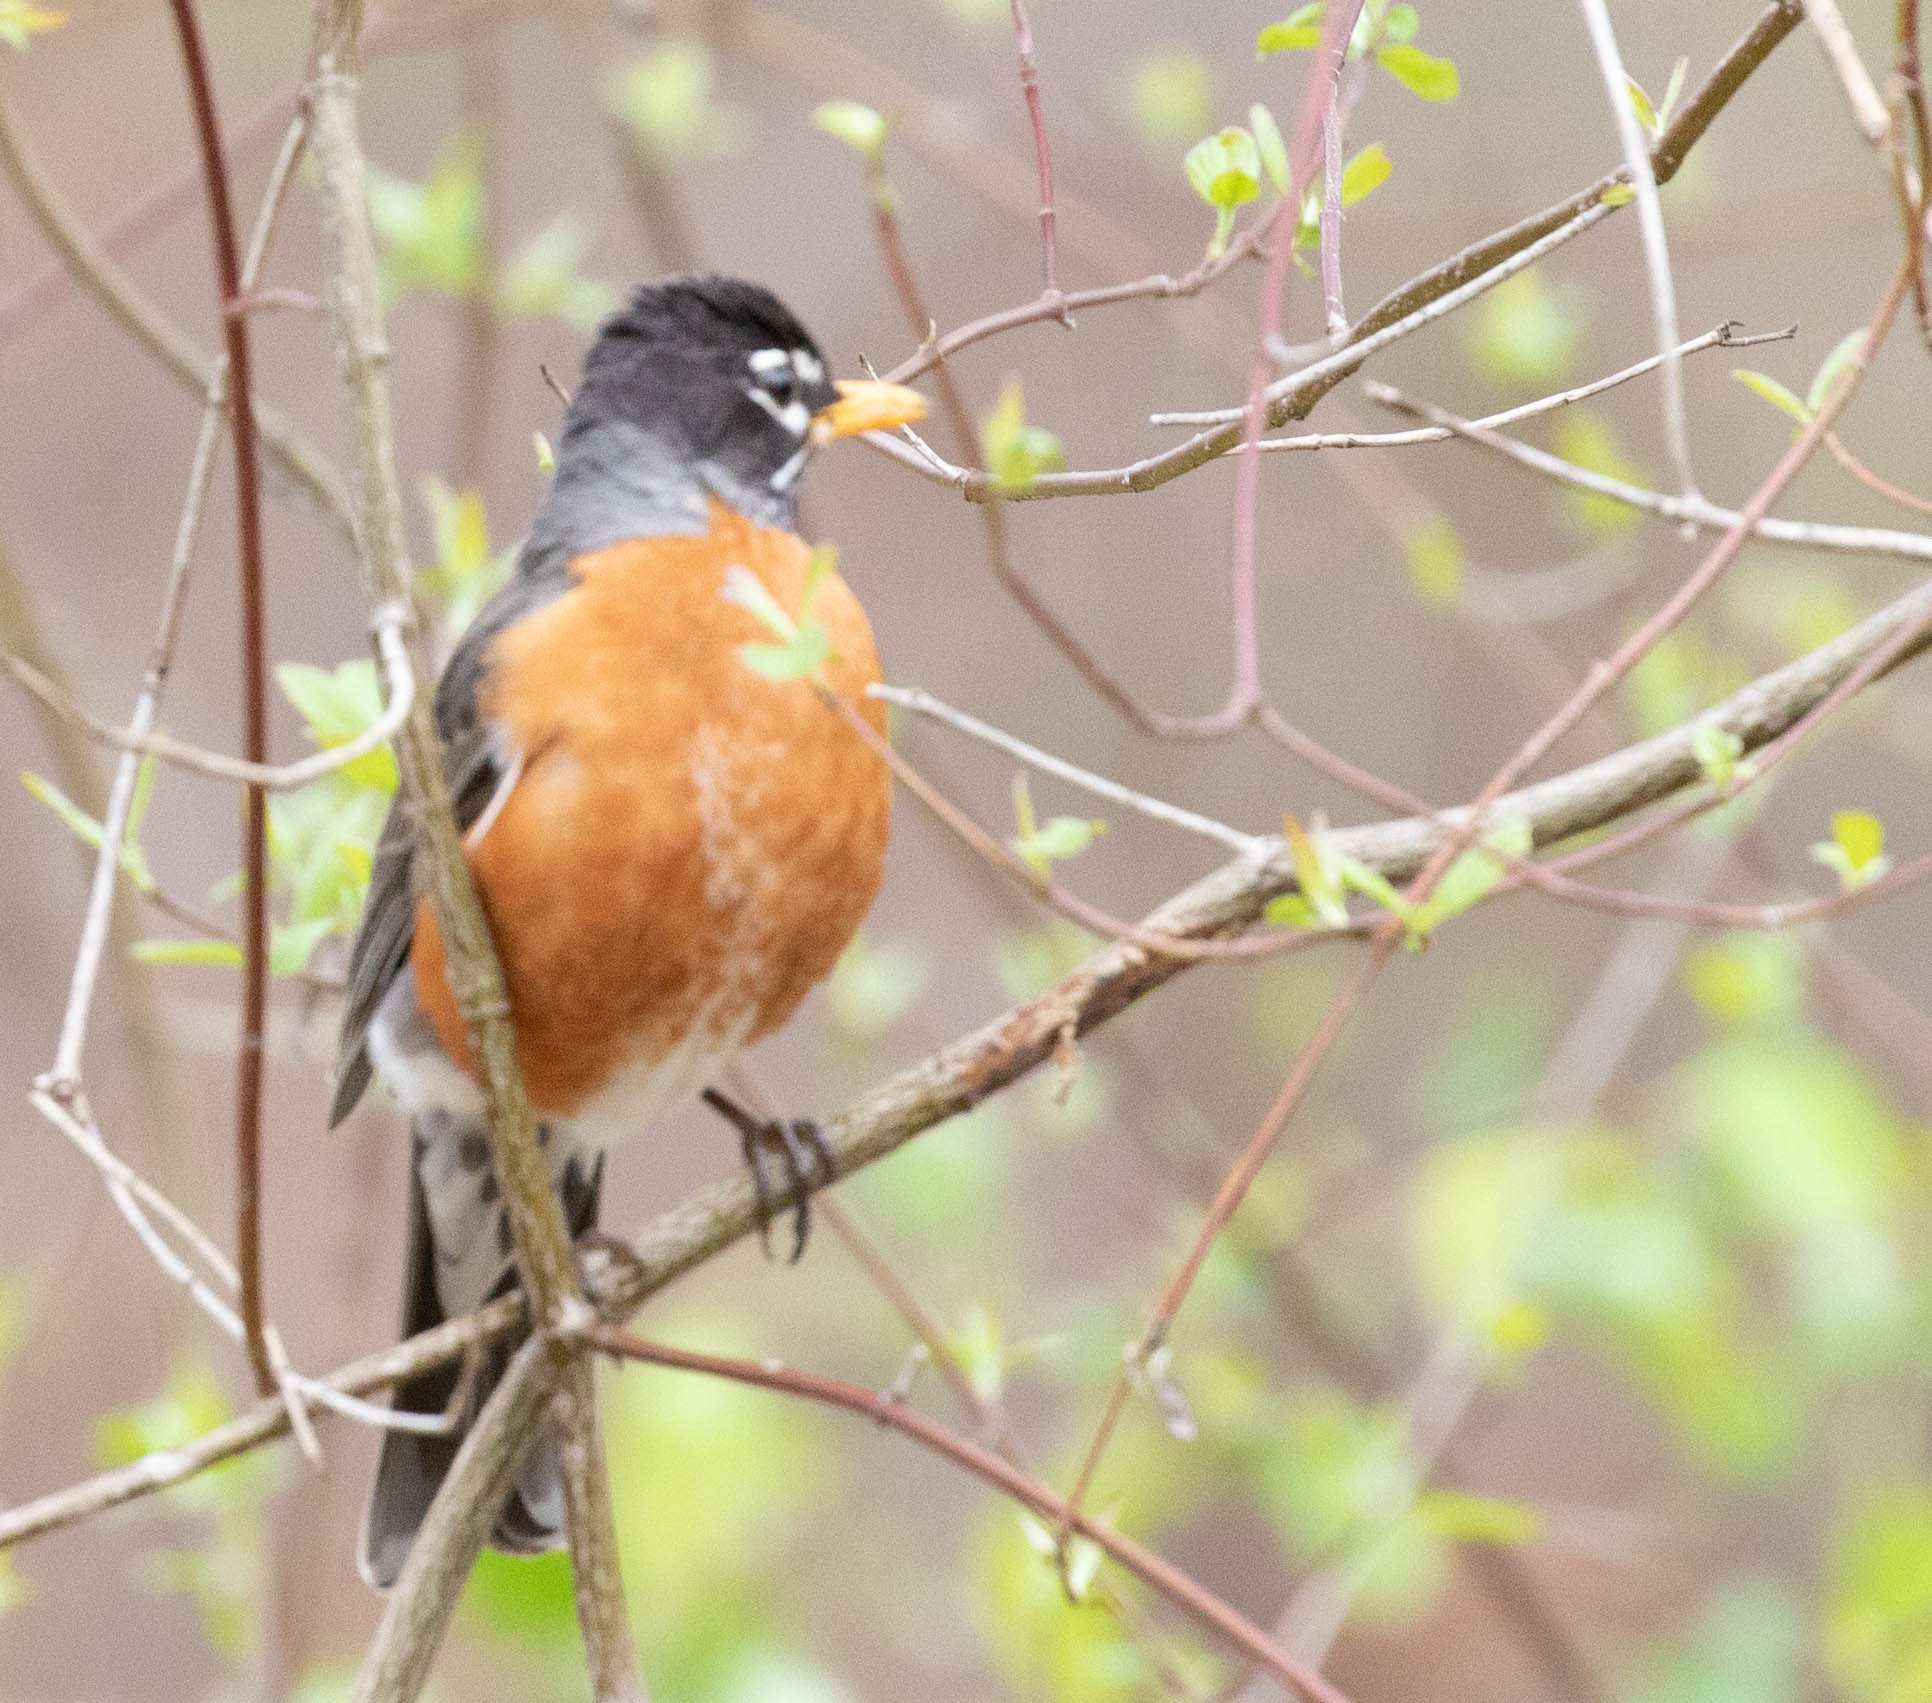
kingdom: Animalia
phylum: Chordata
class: Aves
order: Passeriformes
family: Turdidae
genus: Turdus
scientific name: Turdus migratorius
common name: American robin
